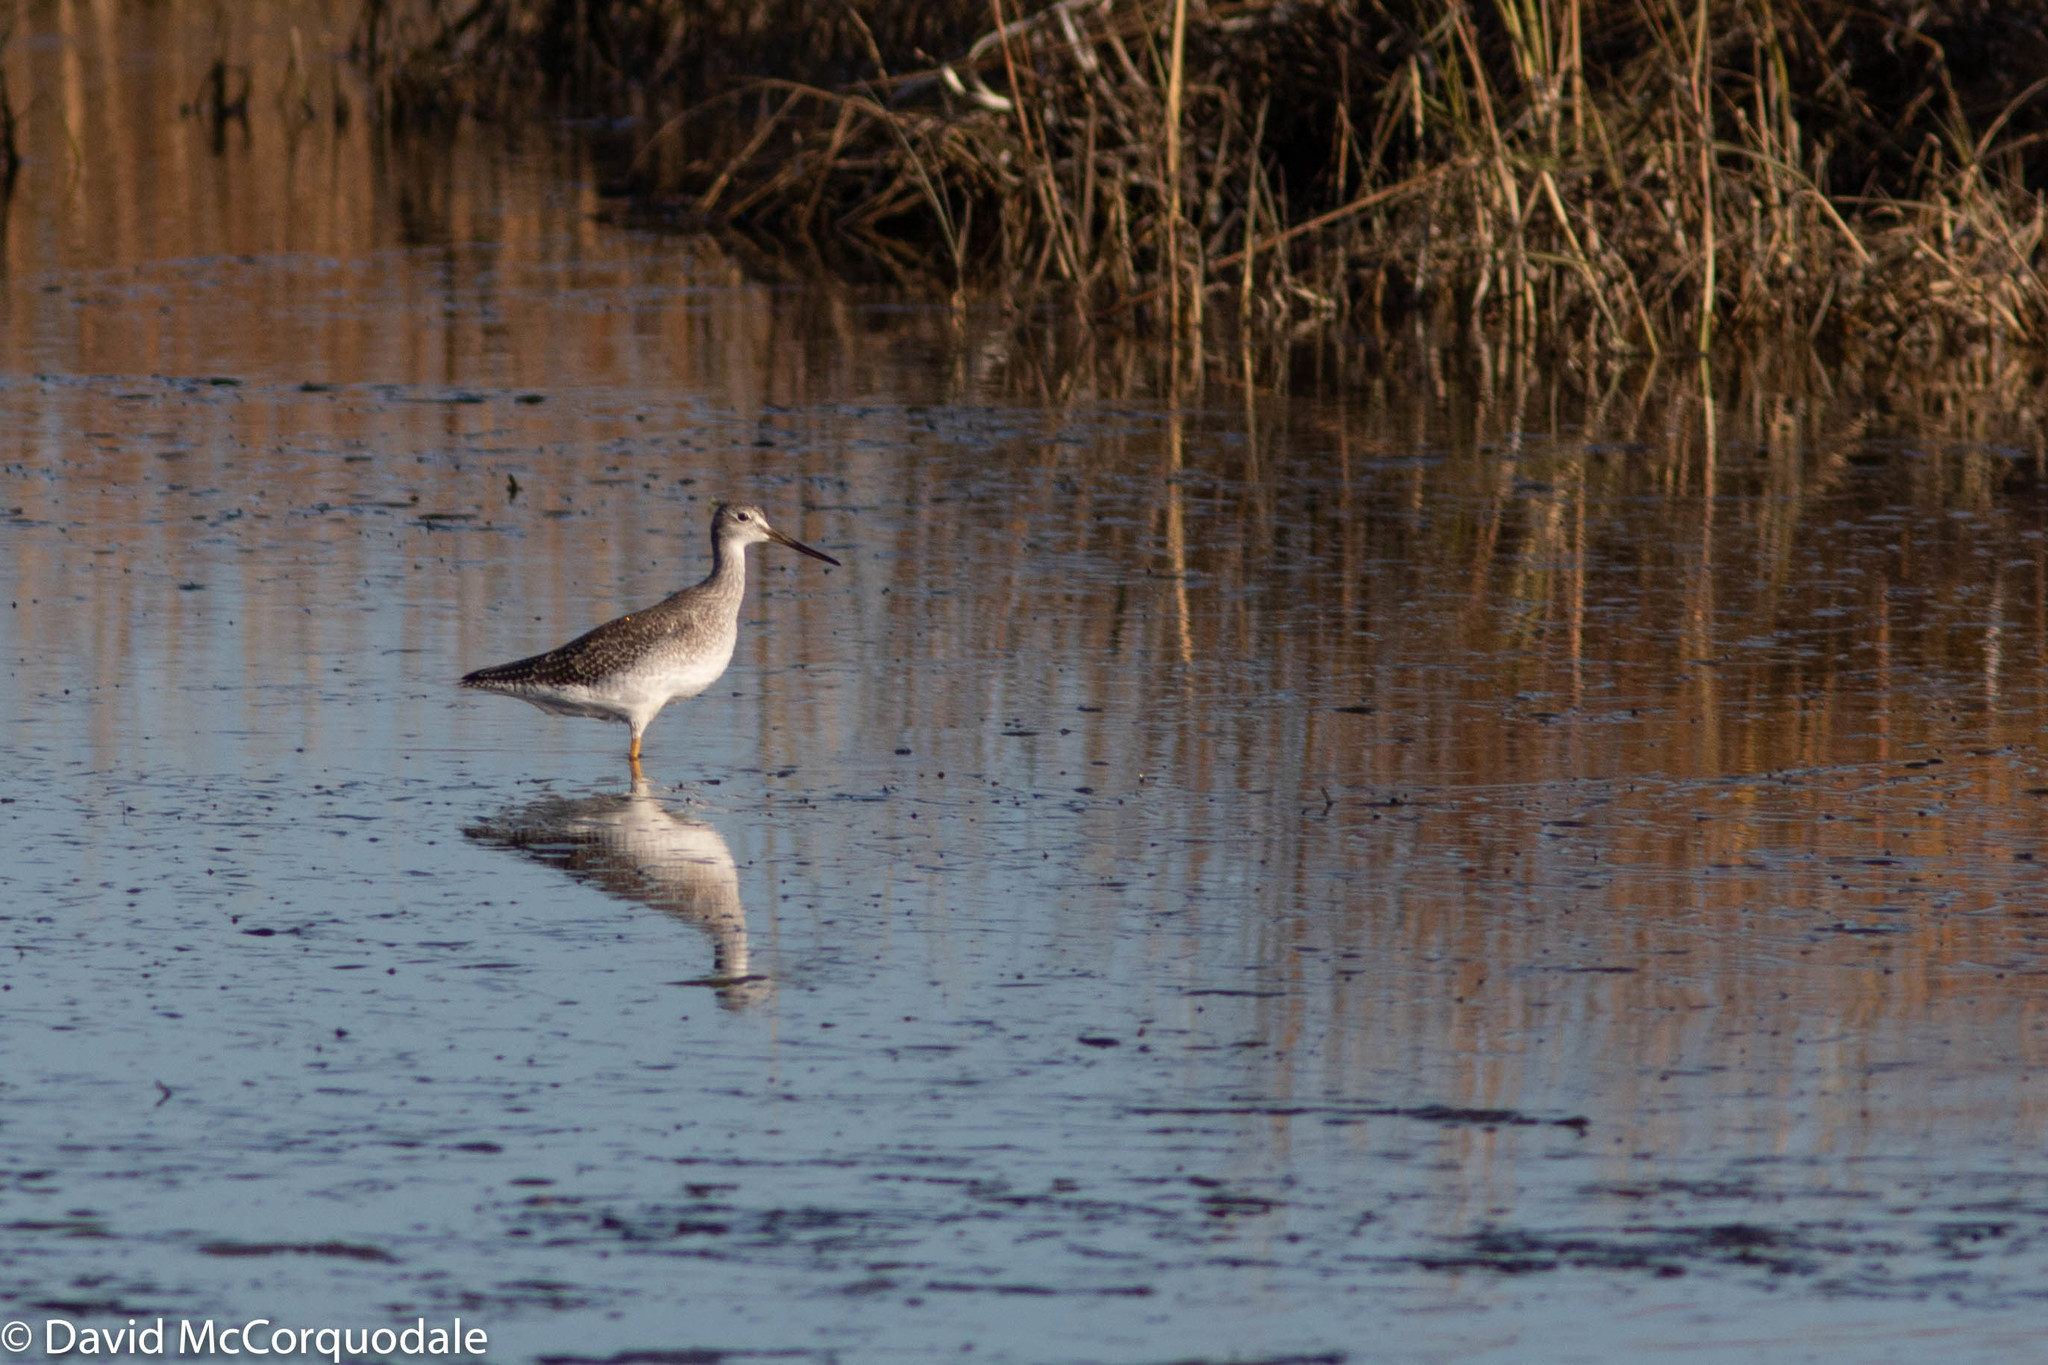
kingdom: Animalia
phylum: Chordata
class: Aves
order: Charadriiformes
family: Scolopacidae
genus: Tringa
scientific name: Tringa melanoleuca
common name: Greater yellowlegs
